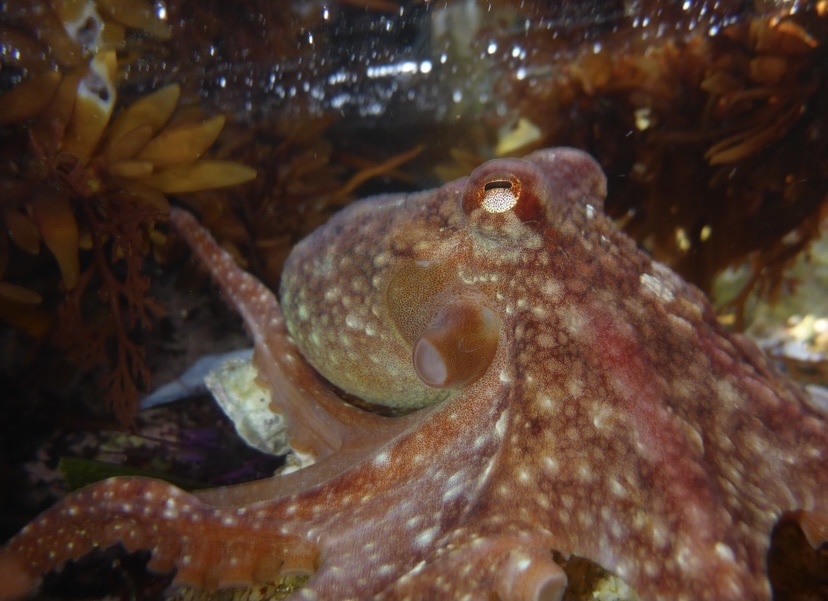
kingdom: Animalia
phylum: Mollusca
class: Cephalopoda
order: Octopoda
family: Octopodidae
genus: Octopus
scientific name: Octopus rubescens
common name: East pacific red octopus
